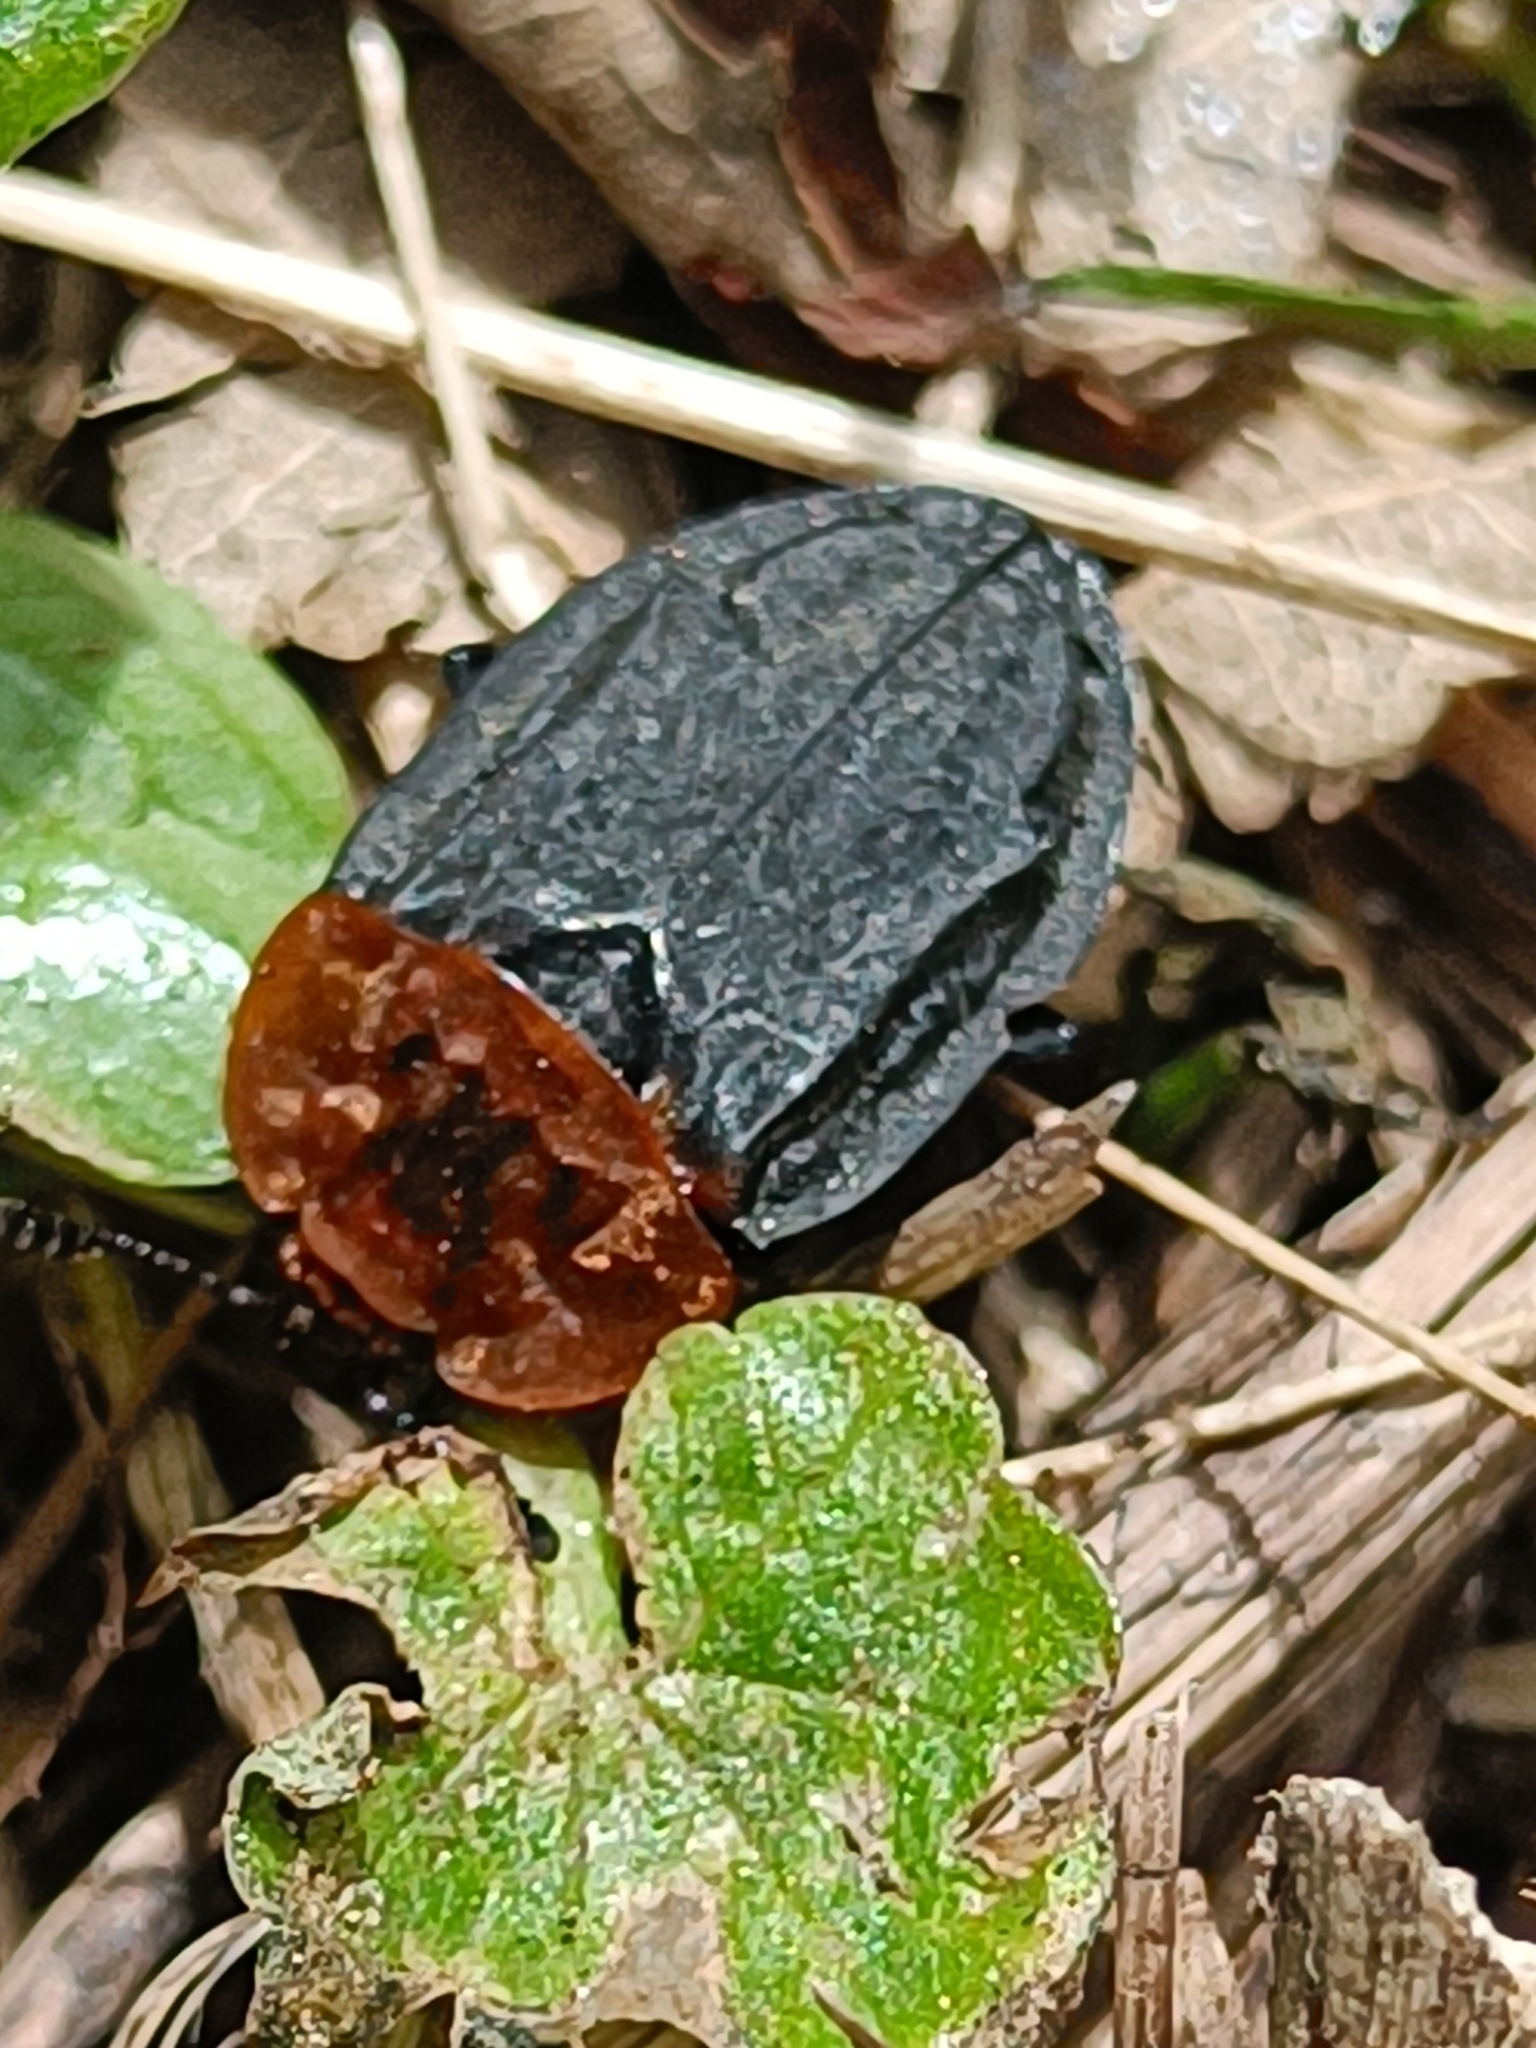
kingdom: Animalia
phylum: Arthropoda
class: Insecta
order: Coleoptera
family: Staphylinidae
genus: Oiceoptoma
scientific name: Oiceoptoma thoracicum
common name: Red-breasted carrion beetle
